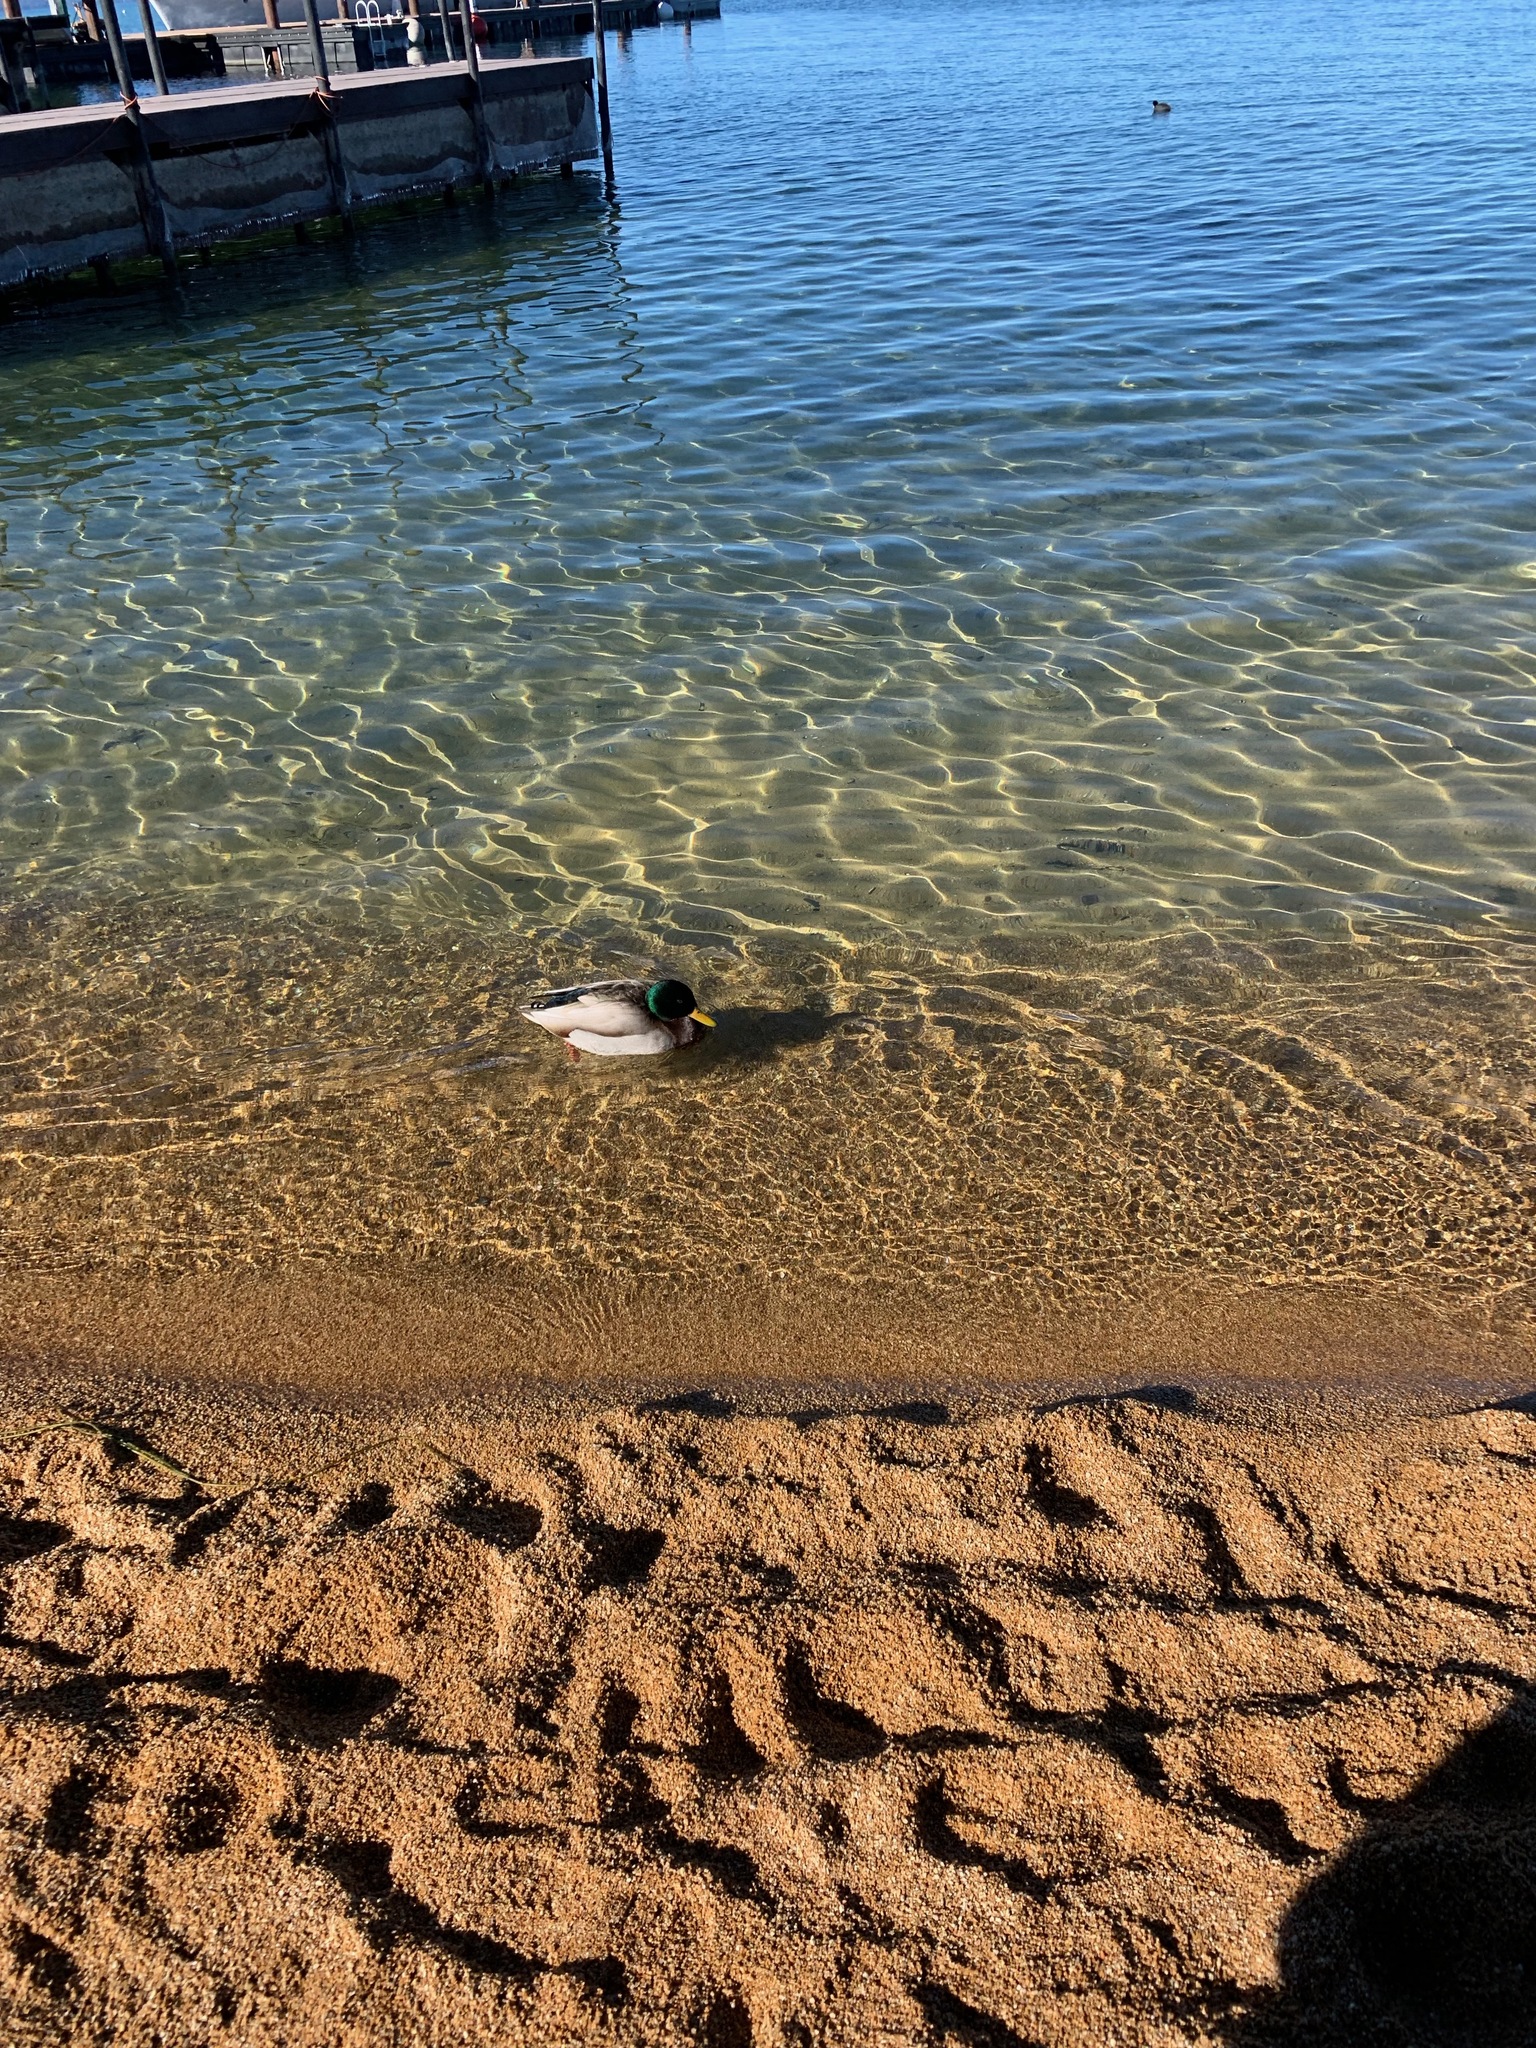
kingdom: Animalia
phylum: Chordata
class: Aves
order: Anseriformes
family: Anatidae
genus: Anas
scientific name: Anas platyrhynchos
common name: Mallard
